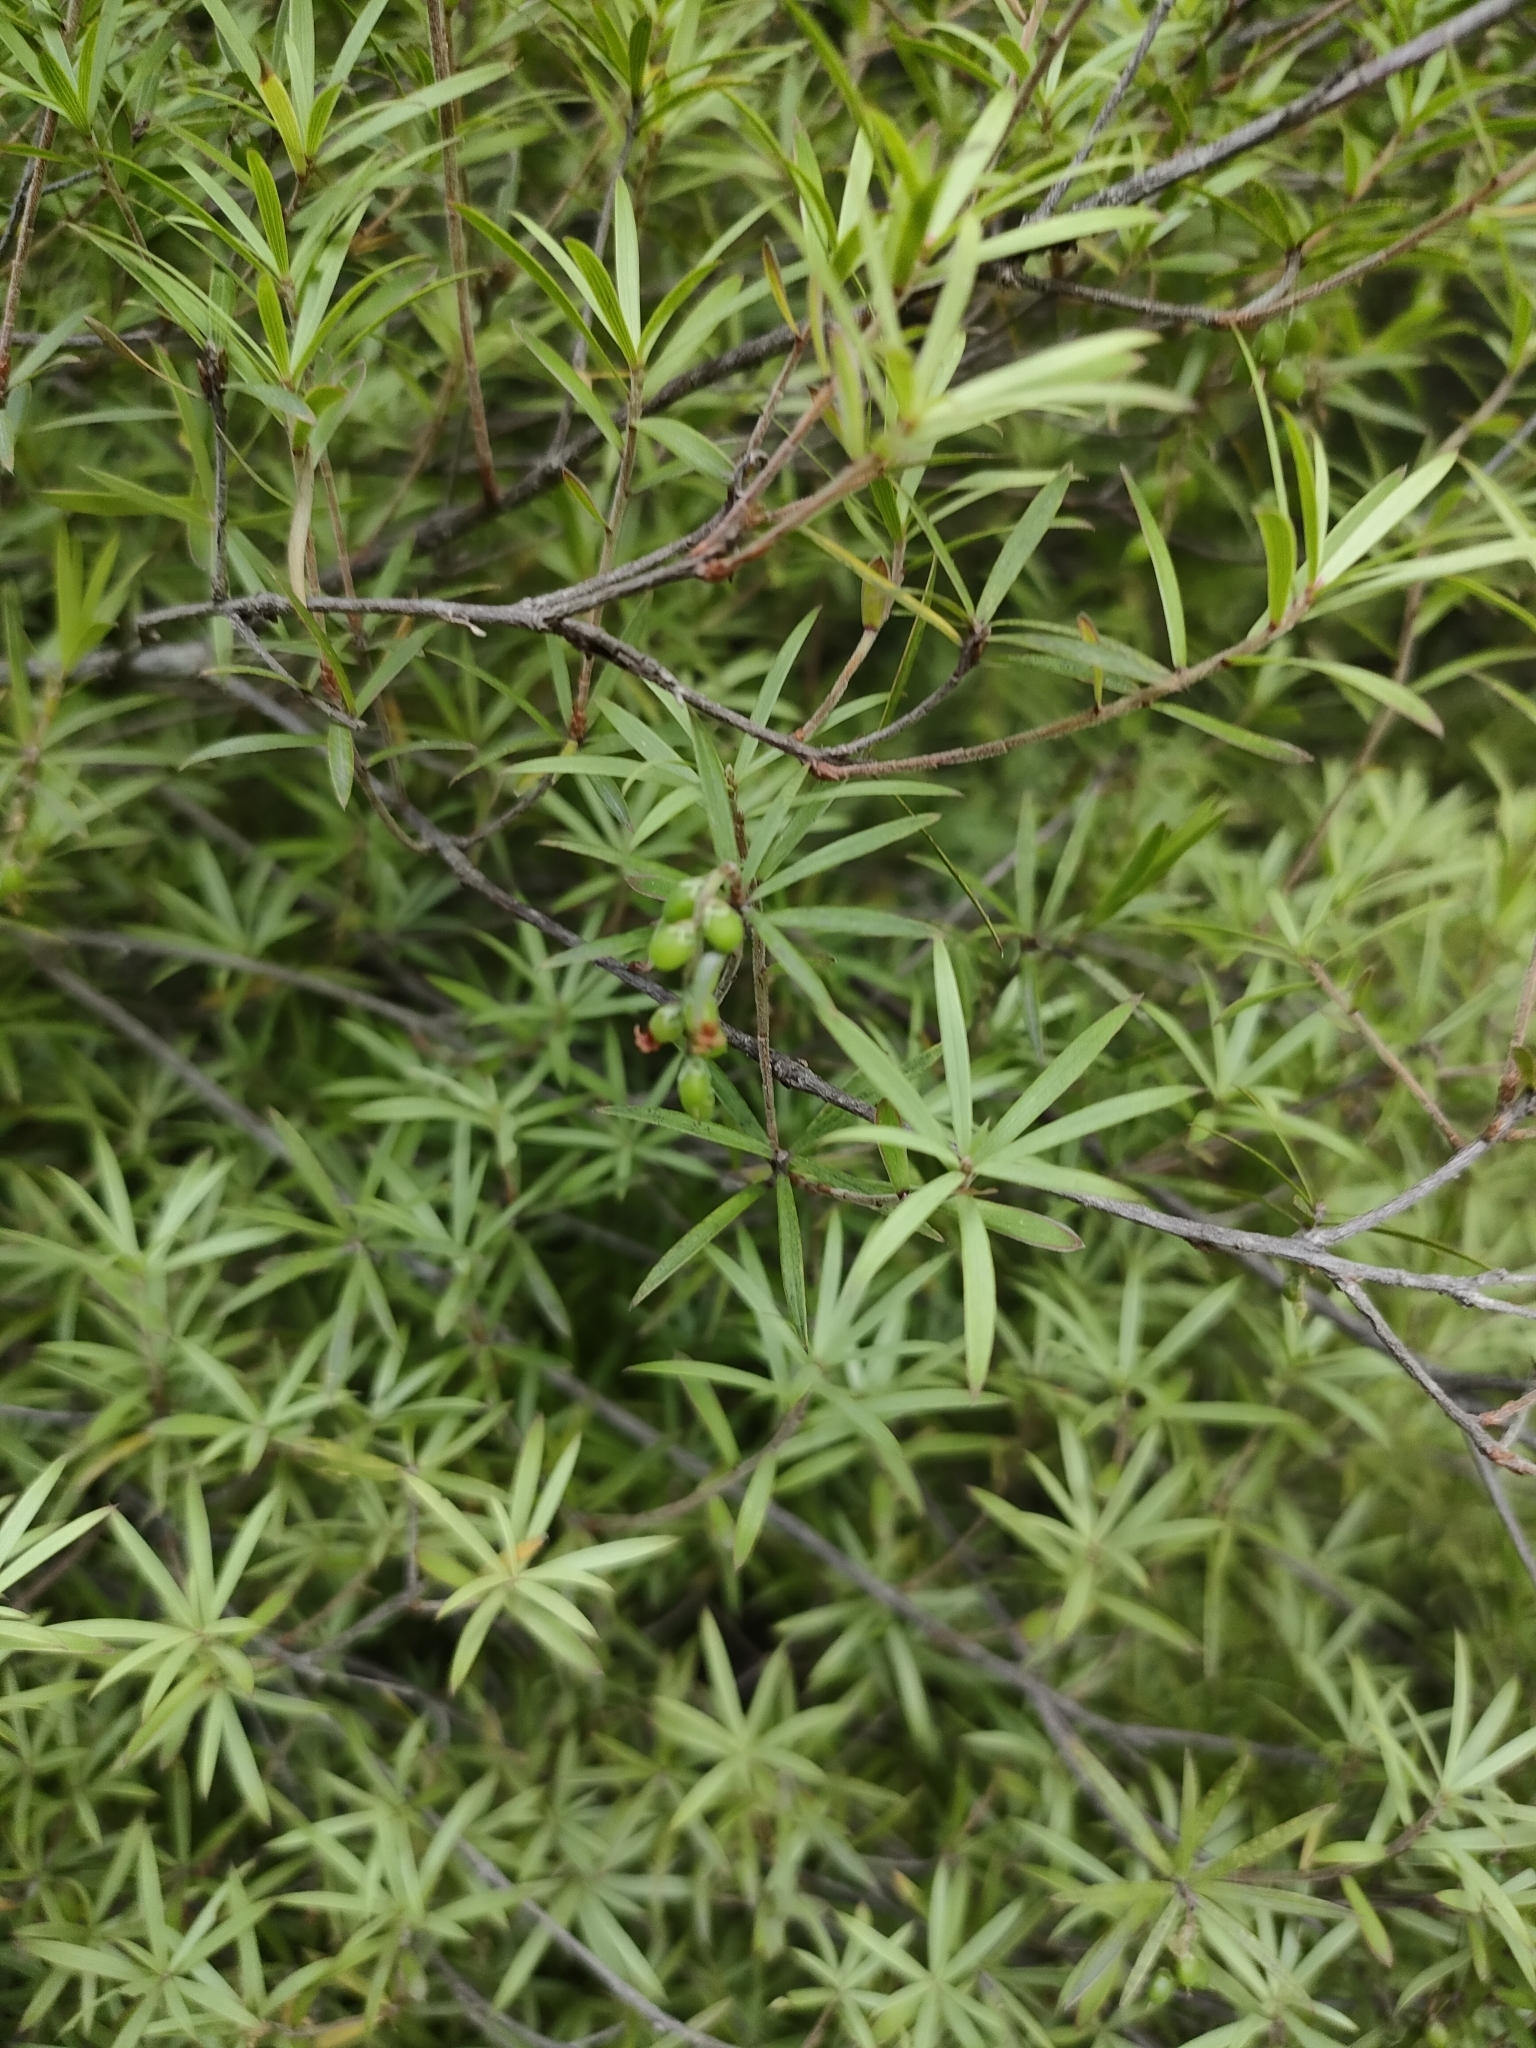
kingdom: Plantae
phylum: Tracheophyta
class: Magnoliopsida
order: Ericales
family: Ericaceae
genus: Leucopogon
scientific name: Leucopogon fasciculatus
